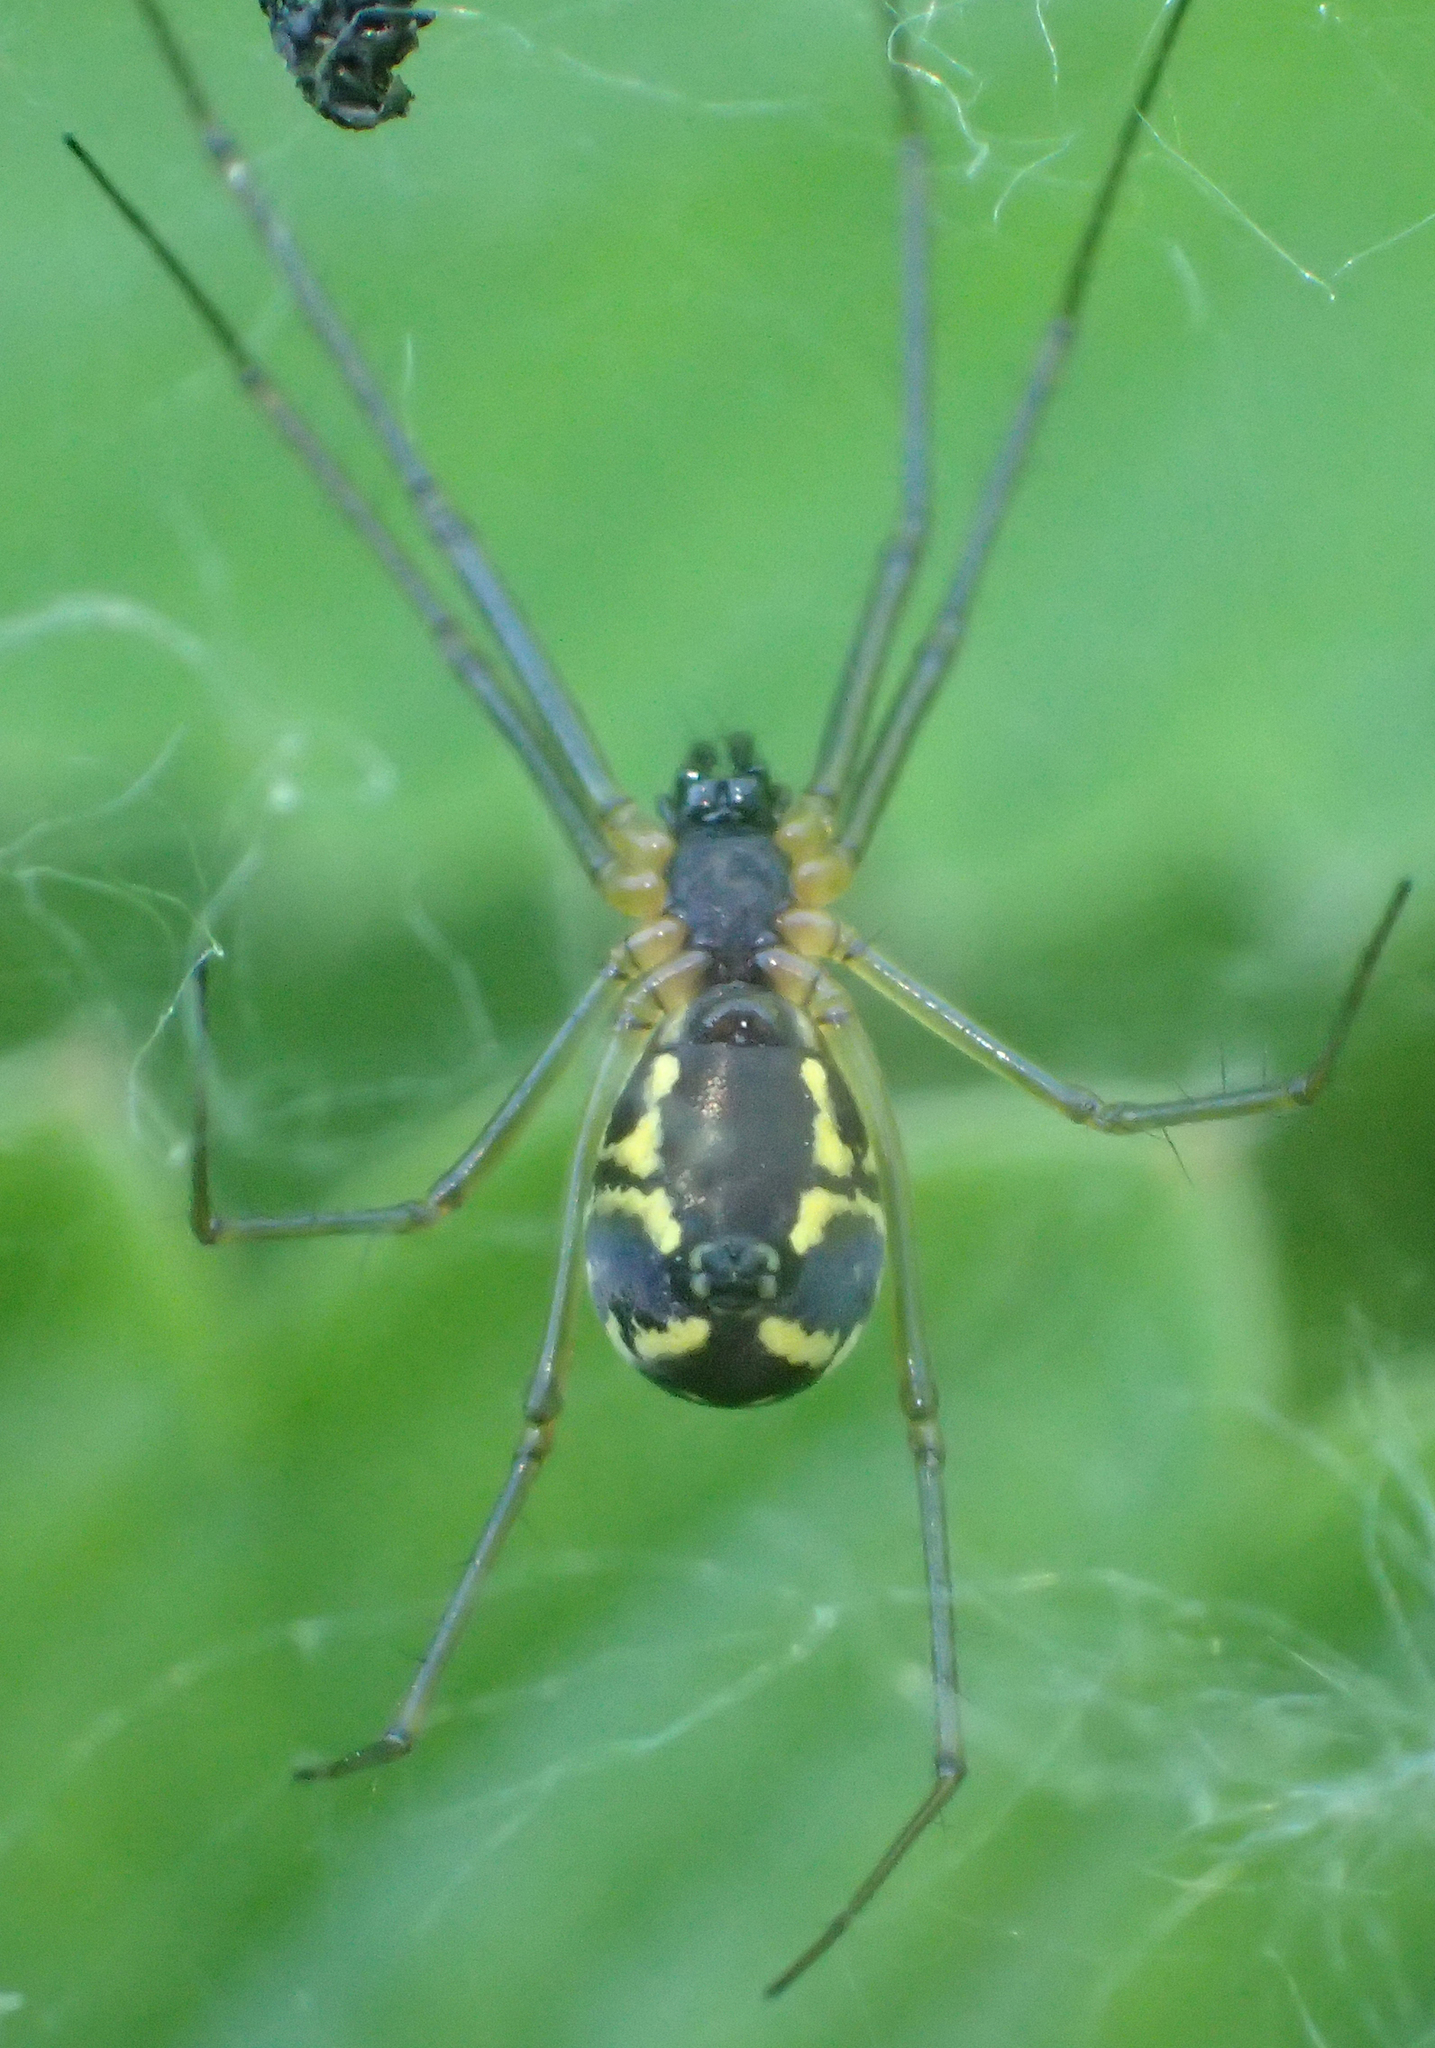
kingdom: Animalia
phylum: Arthropoda
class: Arachnida
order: Araneae
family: Linyphiidae
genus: Neriene
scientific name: Neriene radiata
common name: Filmy dome spider
